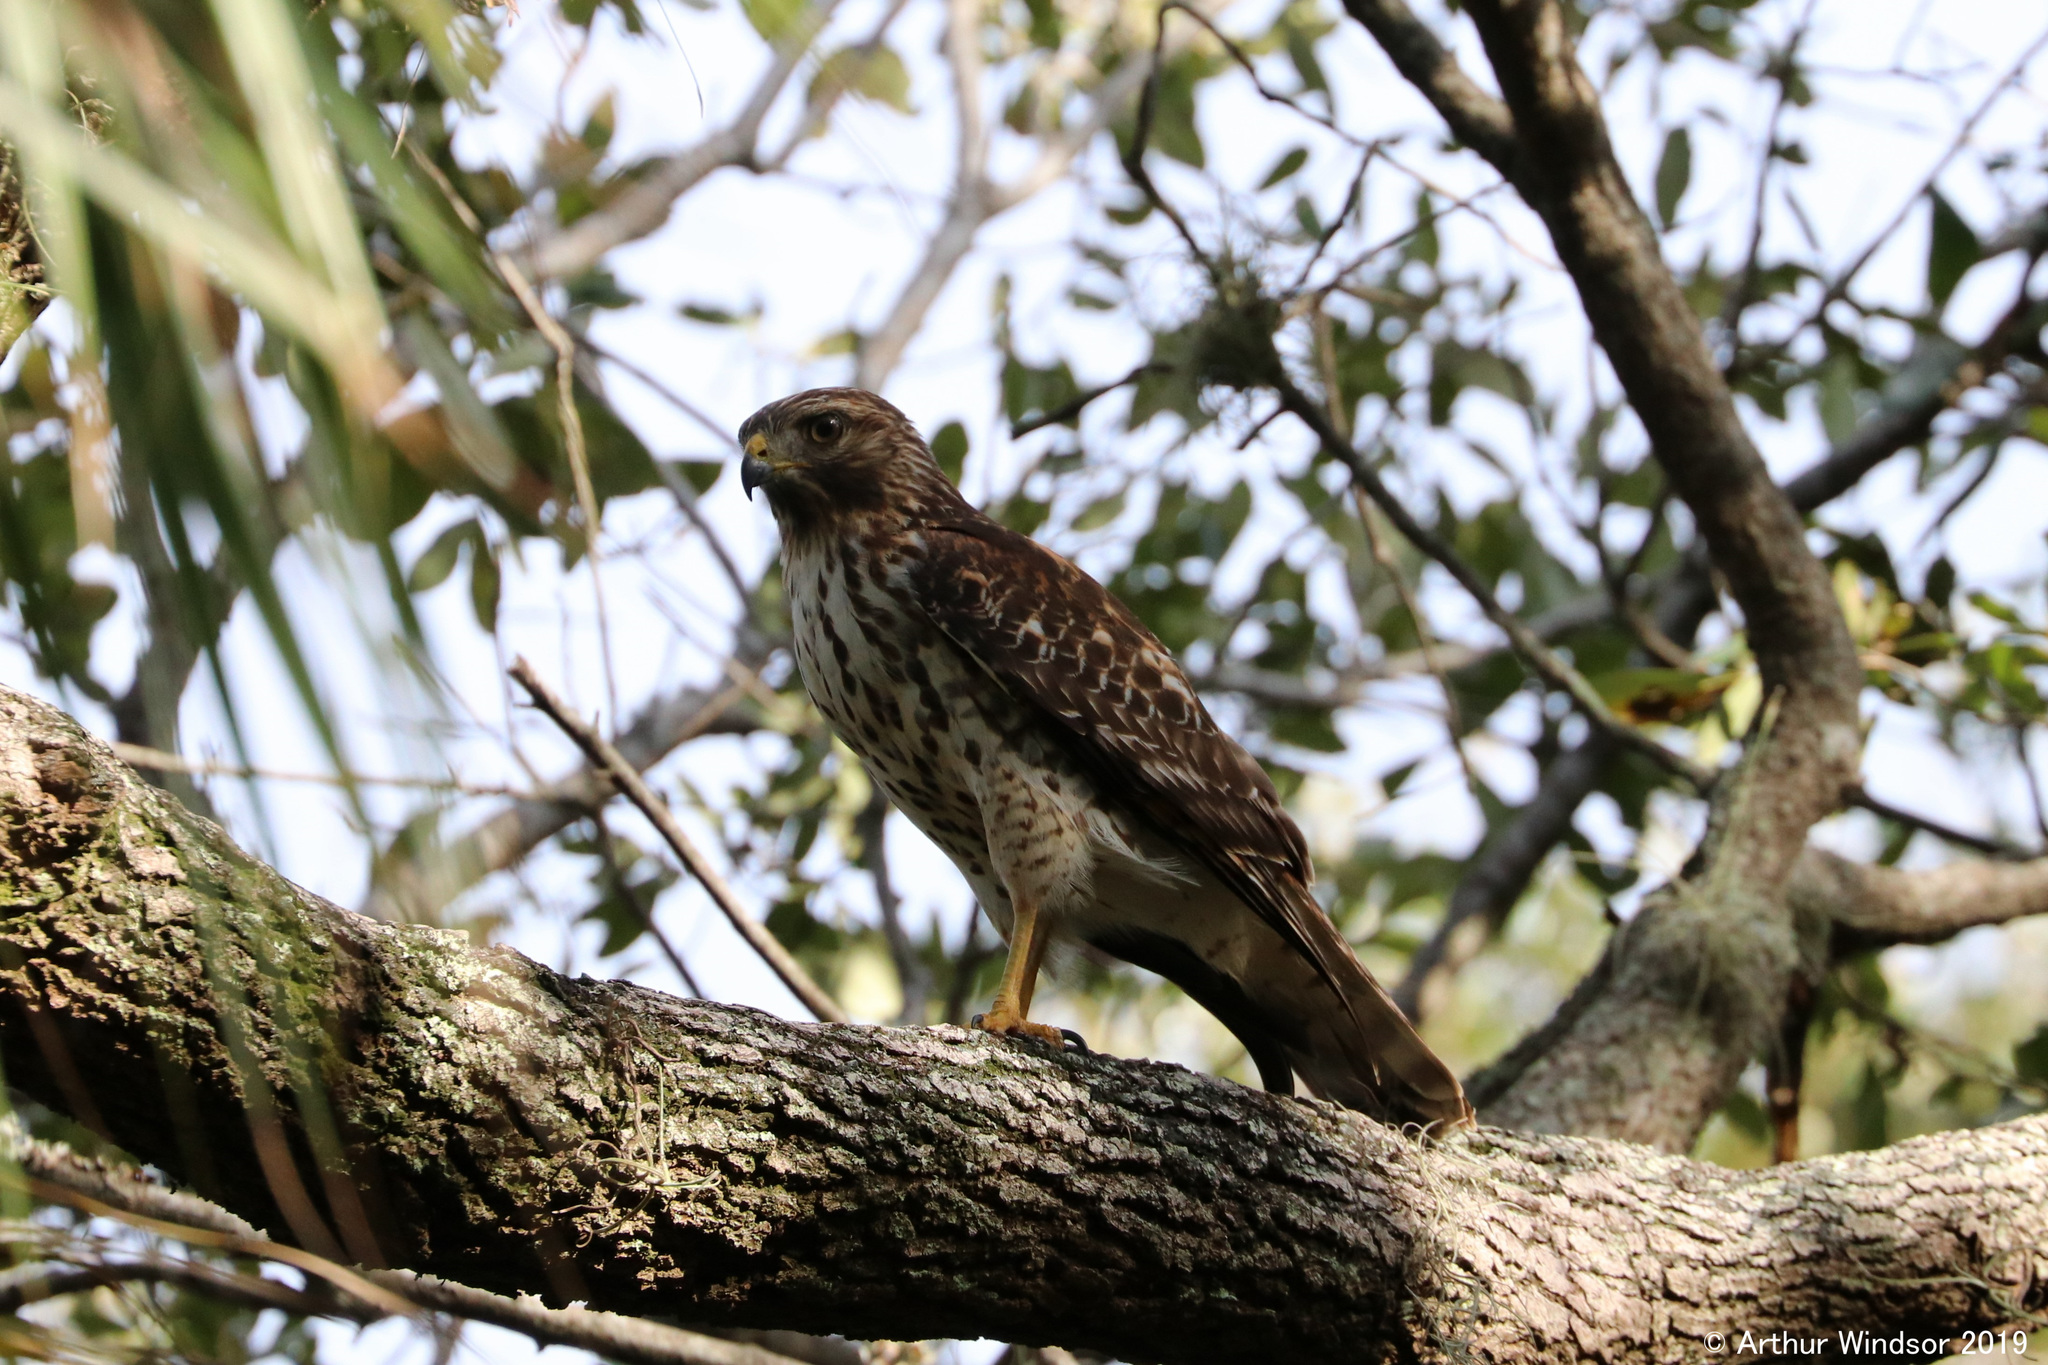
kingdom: Animalia
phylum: Chordata
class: Aves
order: Accipitriformes
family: Accipitridae
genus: Buteo
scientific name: Buteo lineatus
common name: Red-shouldered hawk
